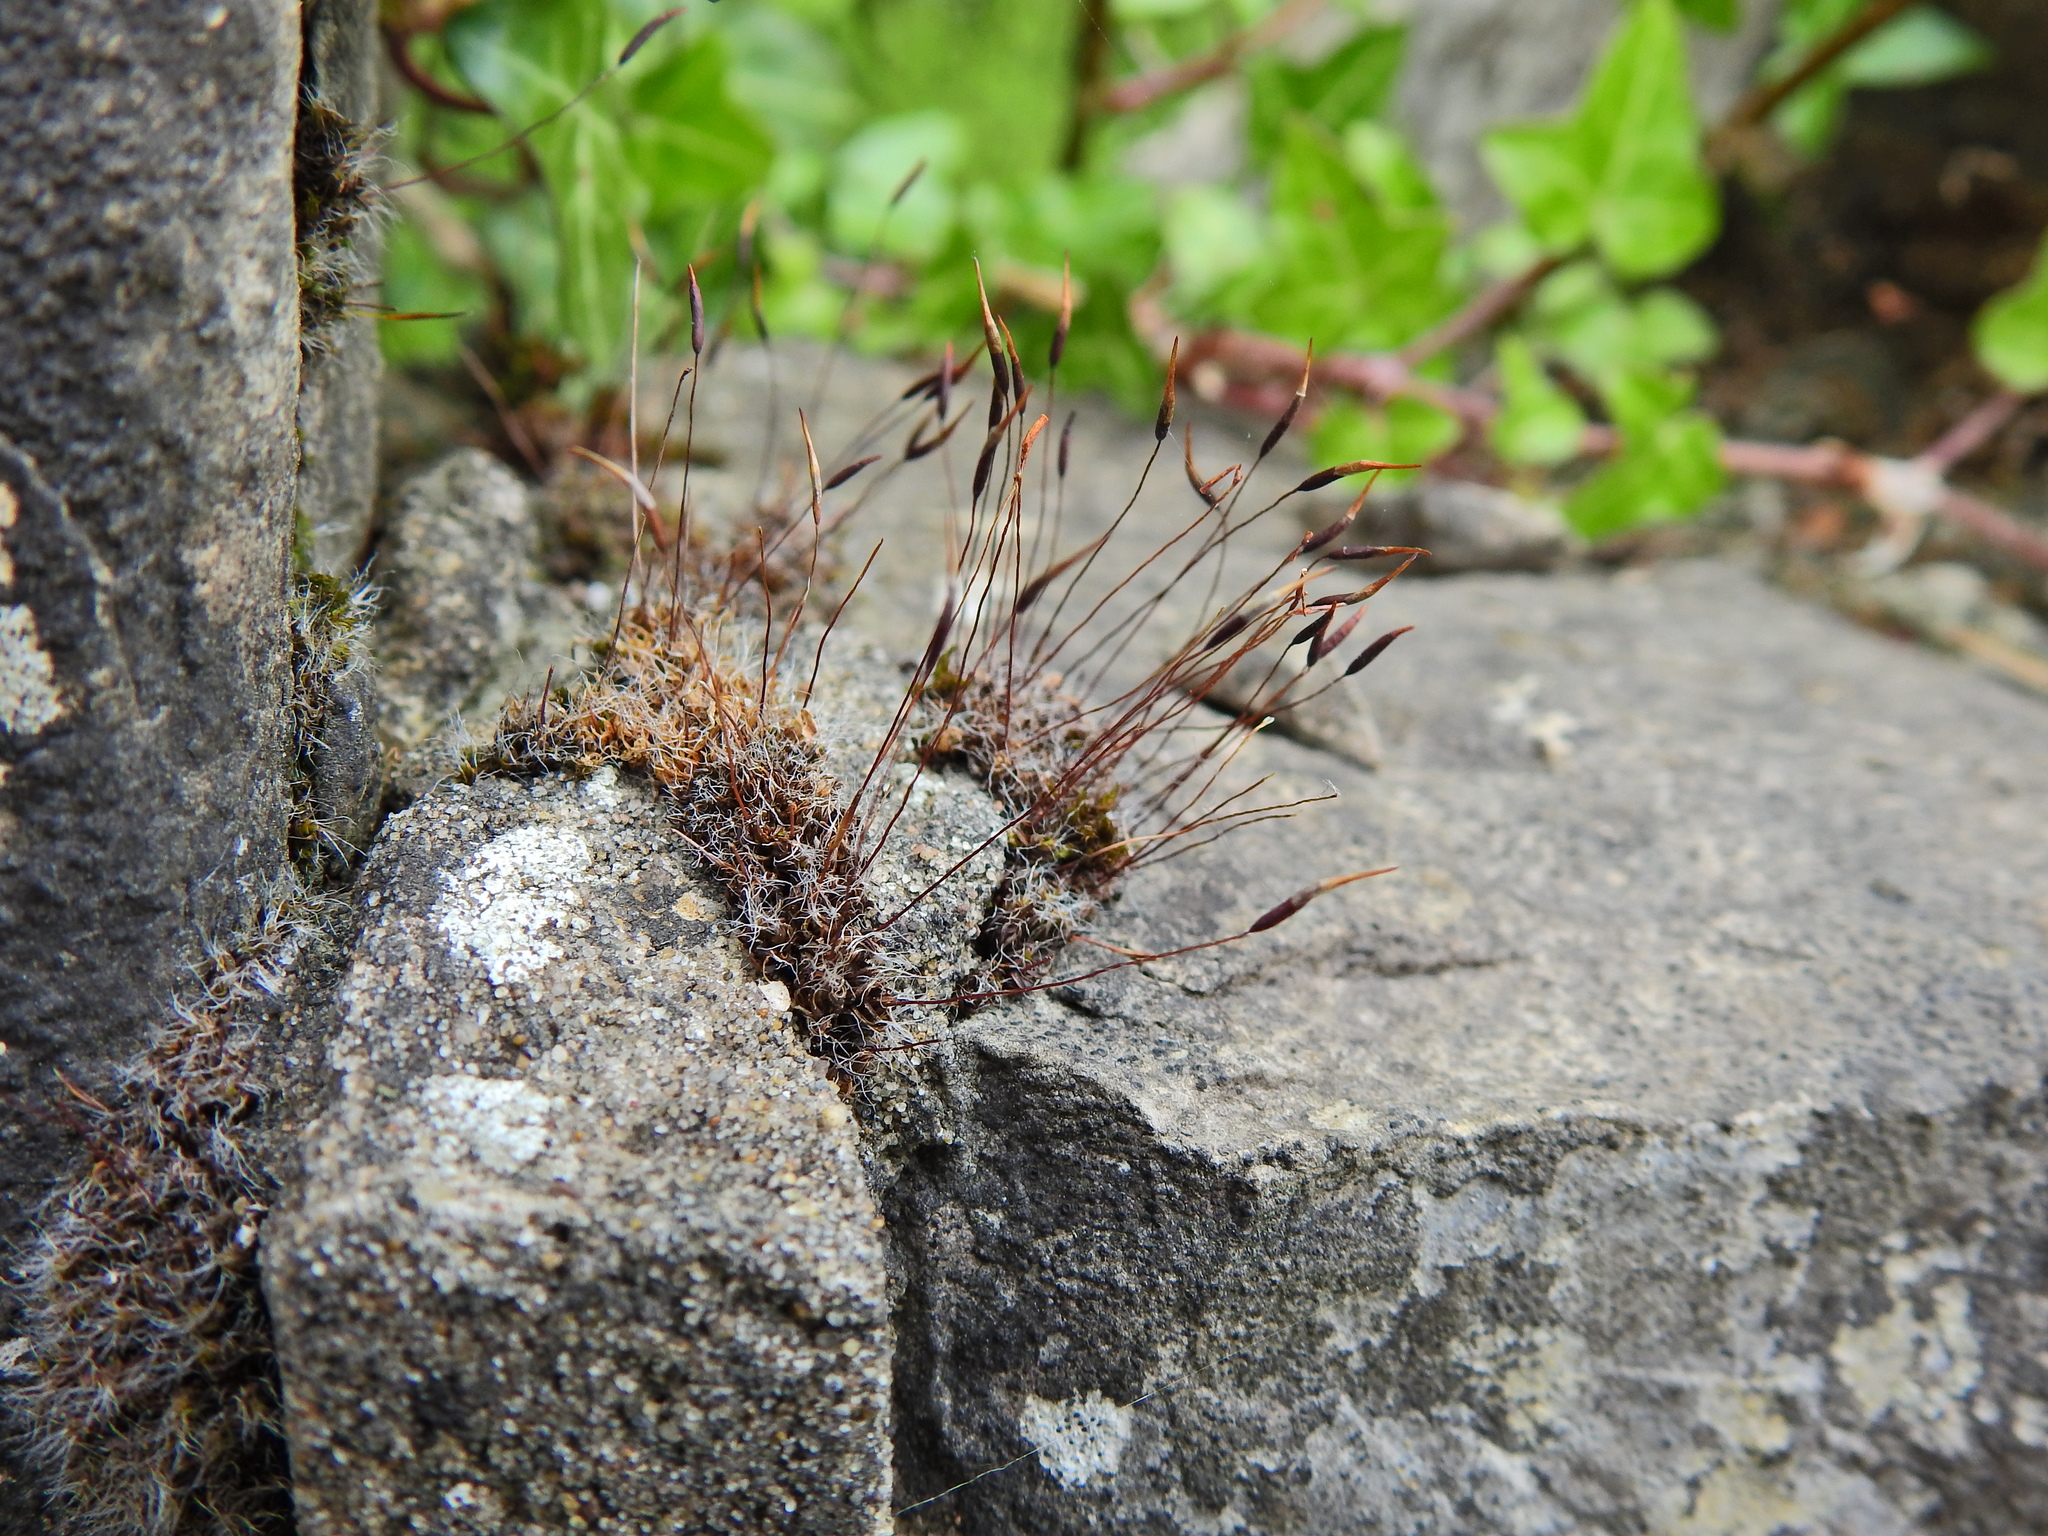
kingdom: Plantae
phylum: Bryophyta
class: Bryopsida
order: Pottiales
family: Pottiaceae
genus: Tortula
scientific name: Tortula muralis
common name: Wall screw-moss
